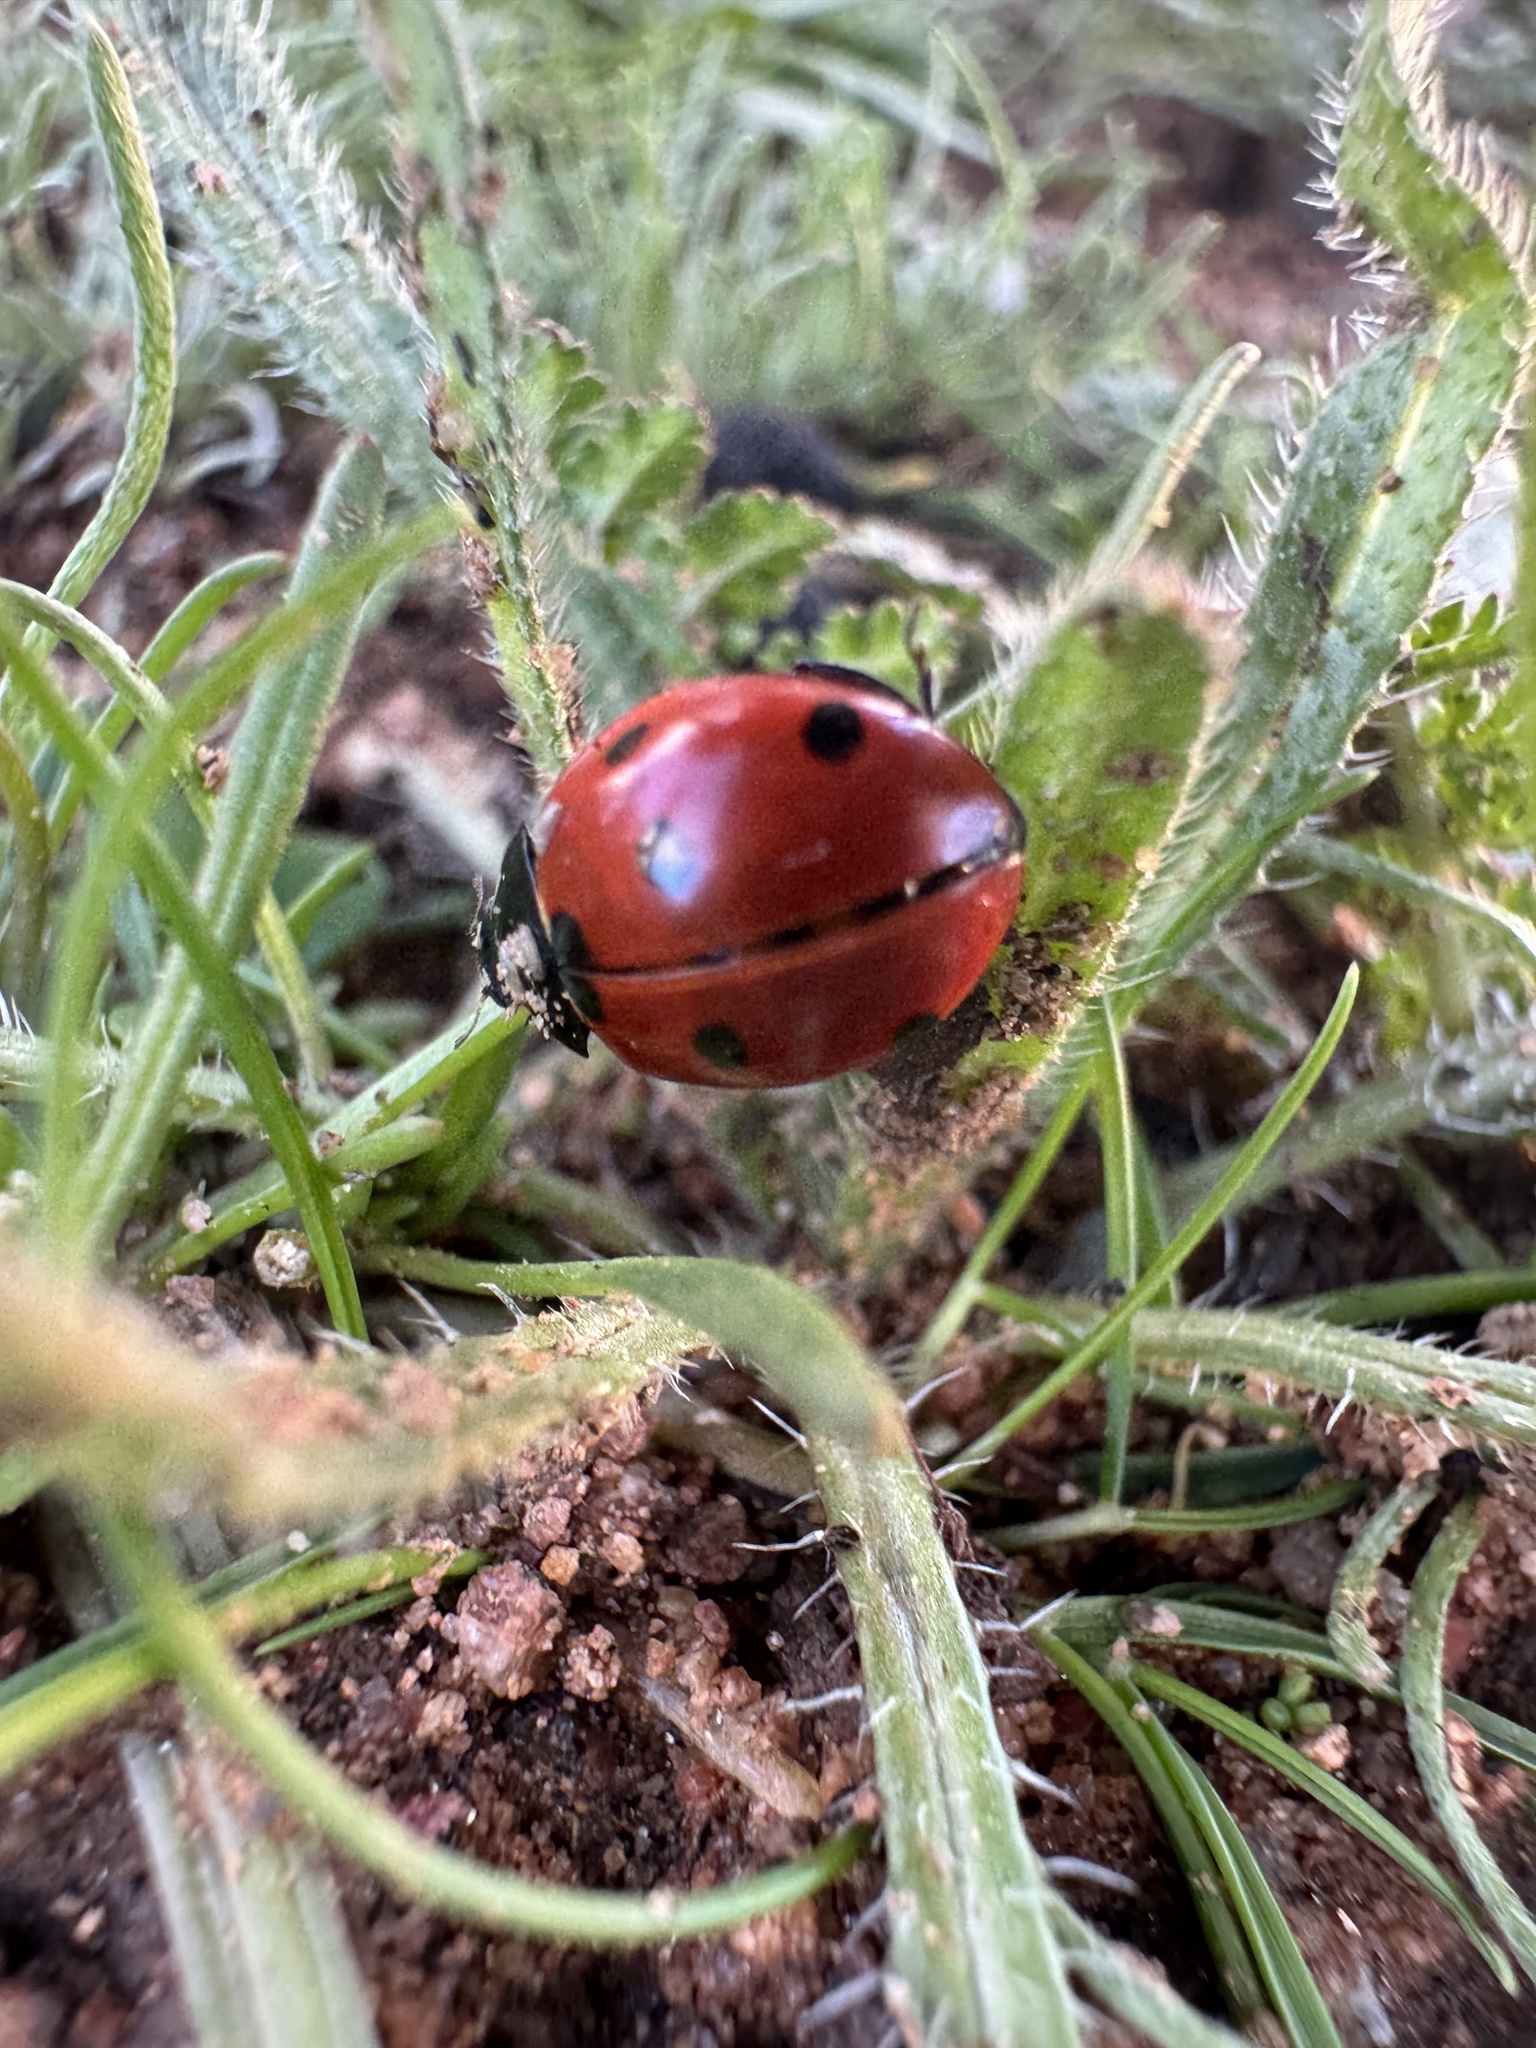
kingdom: Animalia
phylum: Arthropoda
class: Insecta
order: Coleoptera
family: Coccinellidae
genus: Coccinella
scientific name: Coccinella septempunctata
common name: Sevenspotted lady beetle
